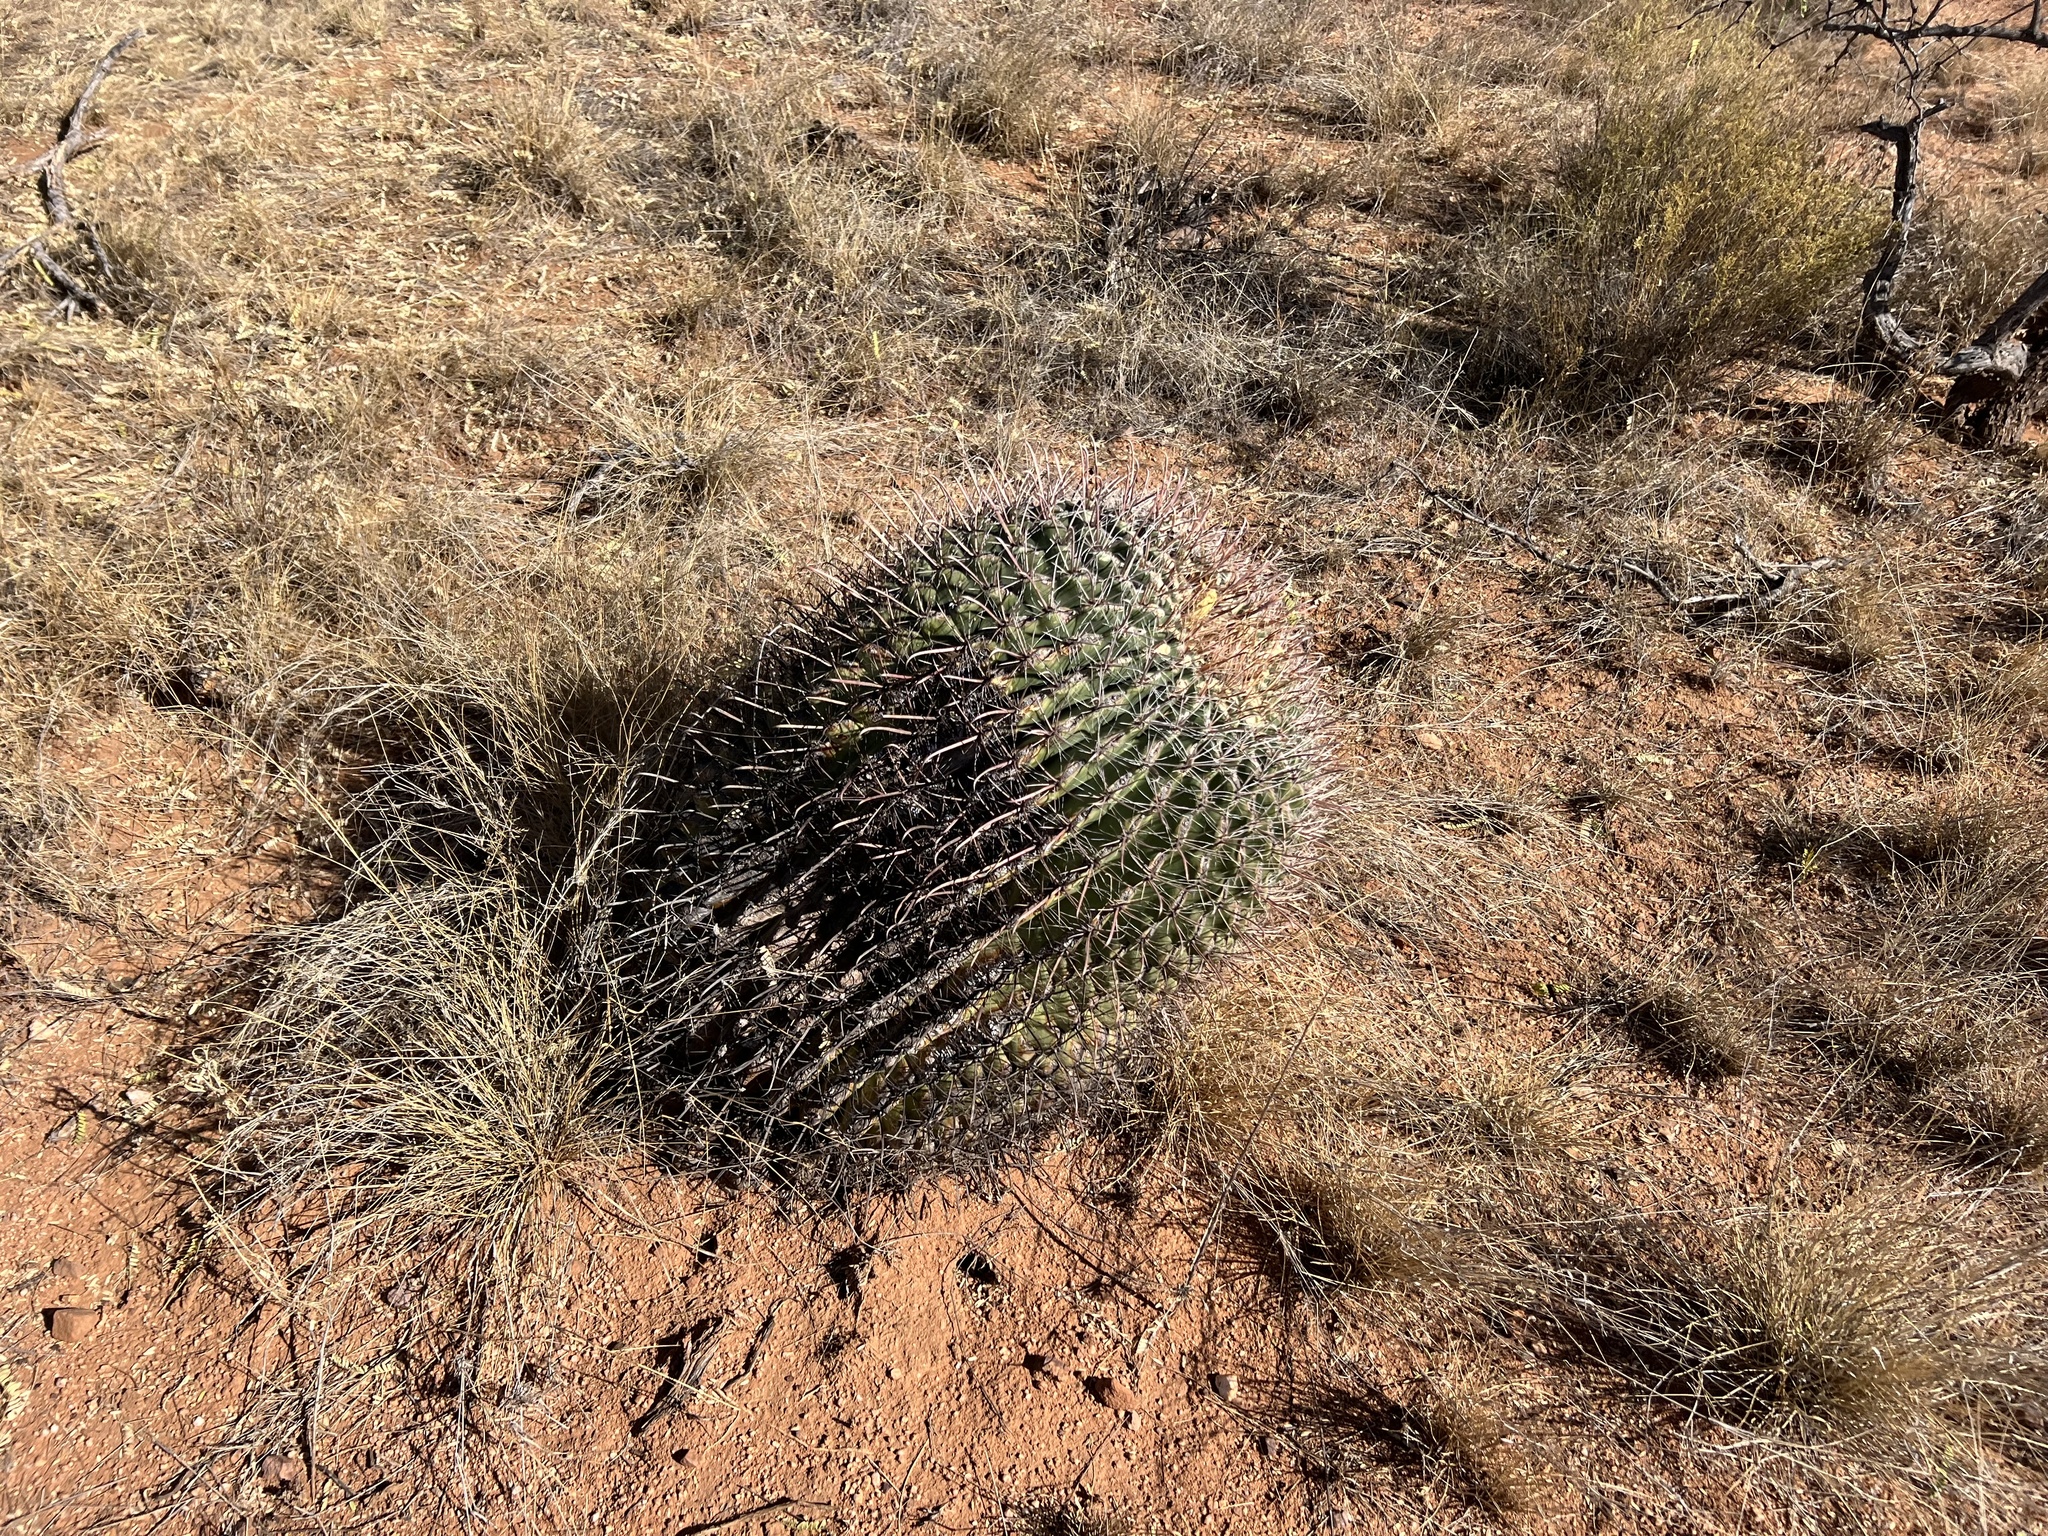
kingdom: Plantae
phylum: Tracheophyta
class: Magnoliopsida
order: Caryophyllales
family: Cactaceae
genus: Ferocactus
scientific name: Ferocactus wislizeni
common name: Candy barrel cactus
